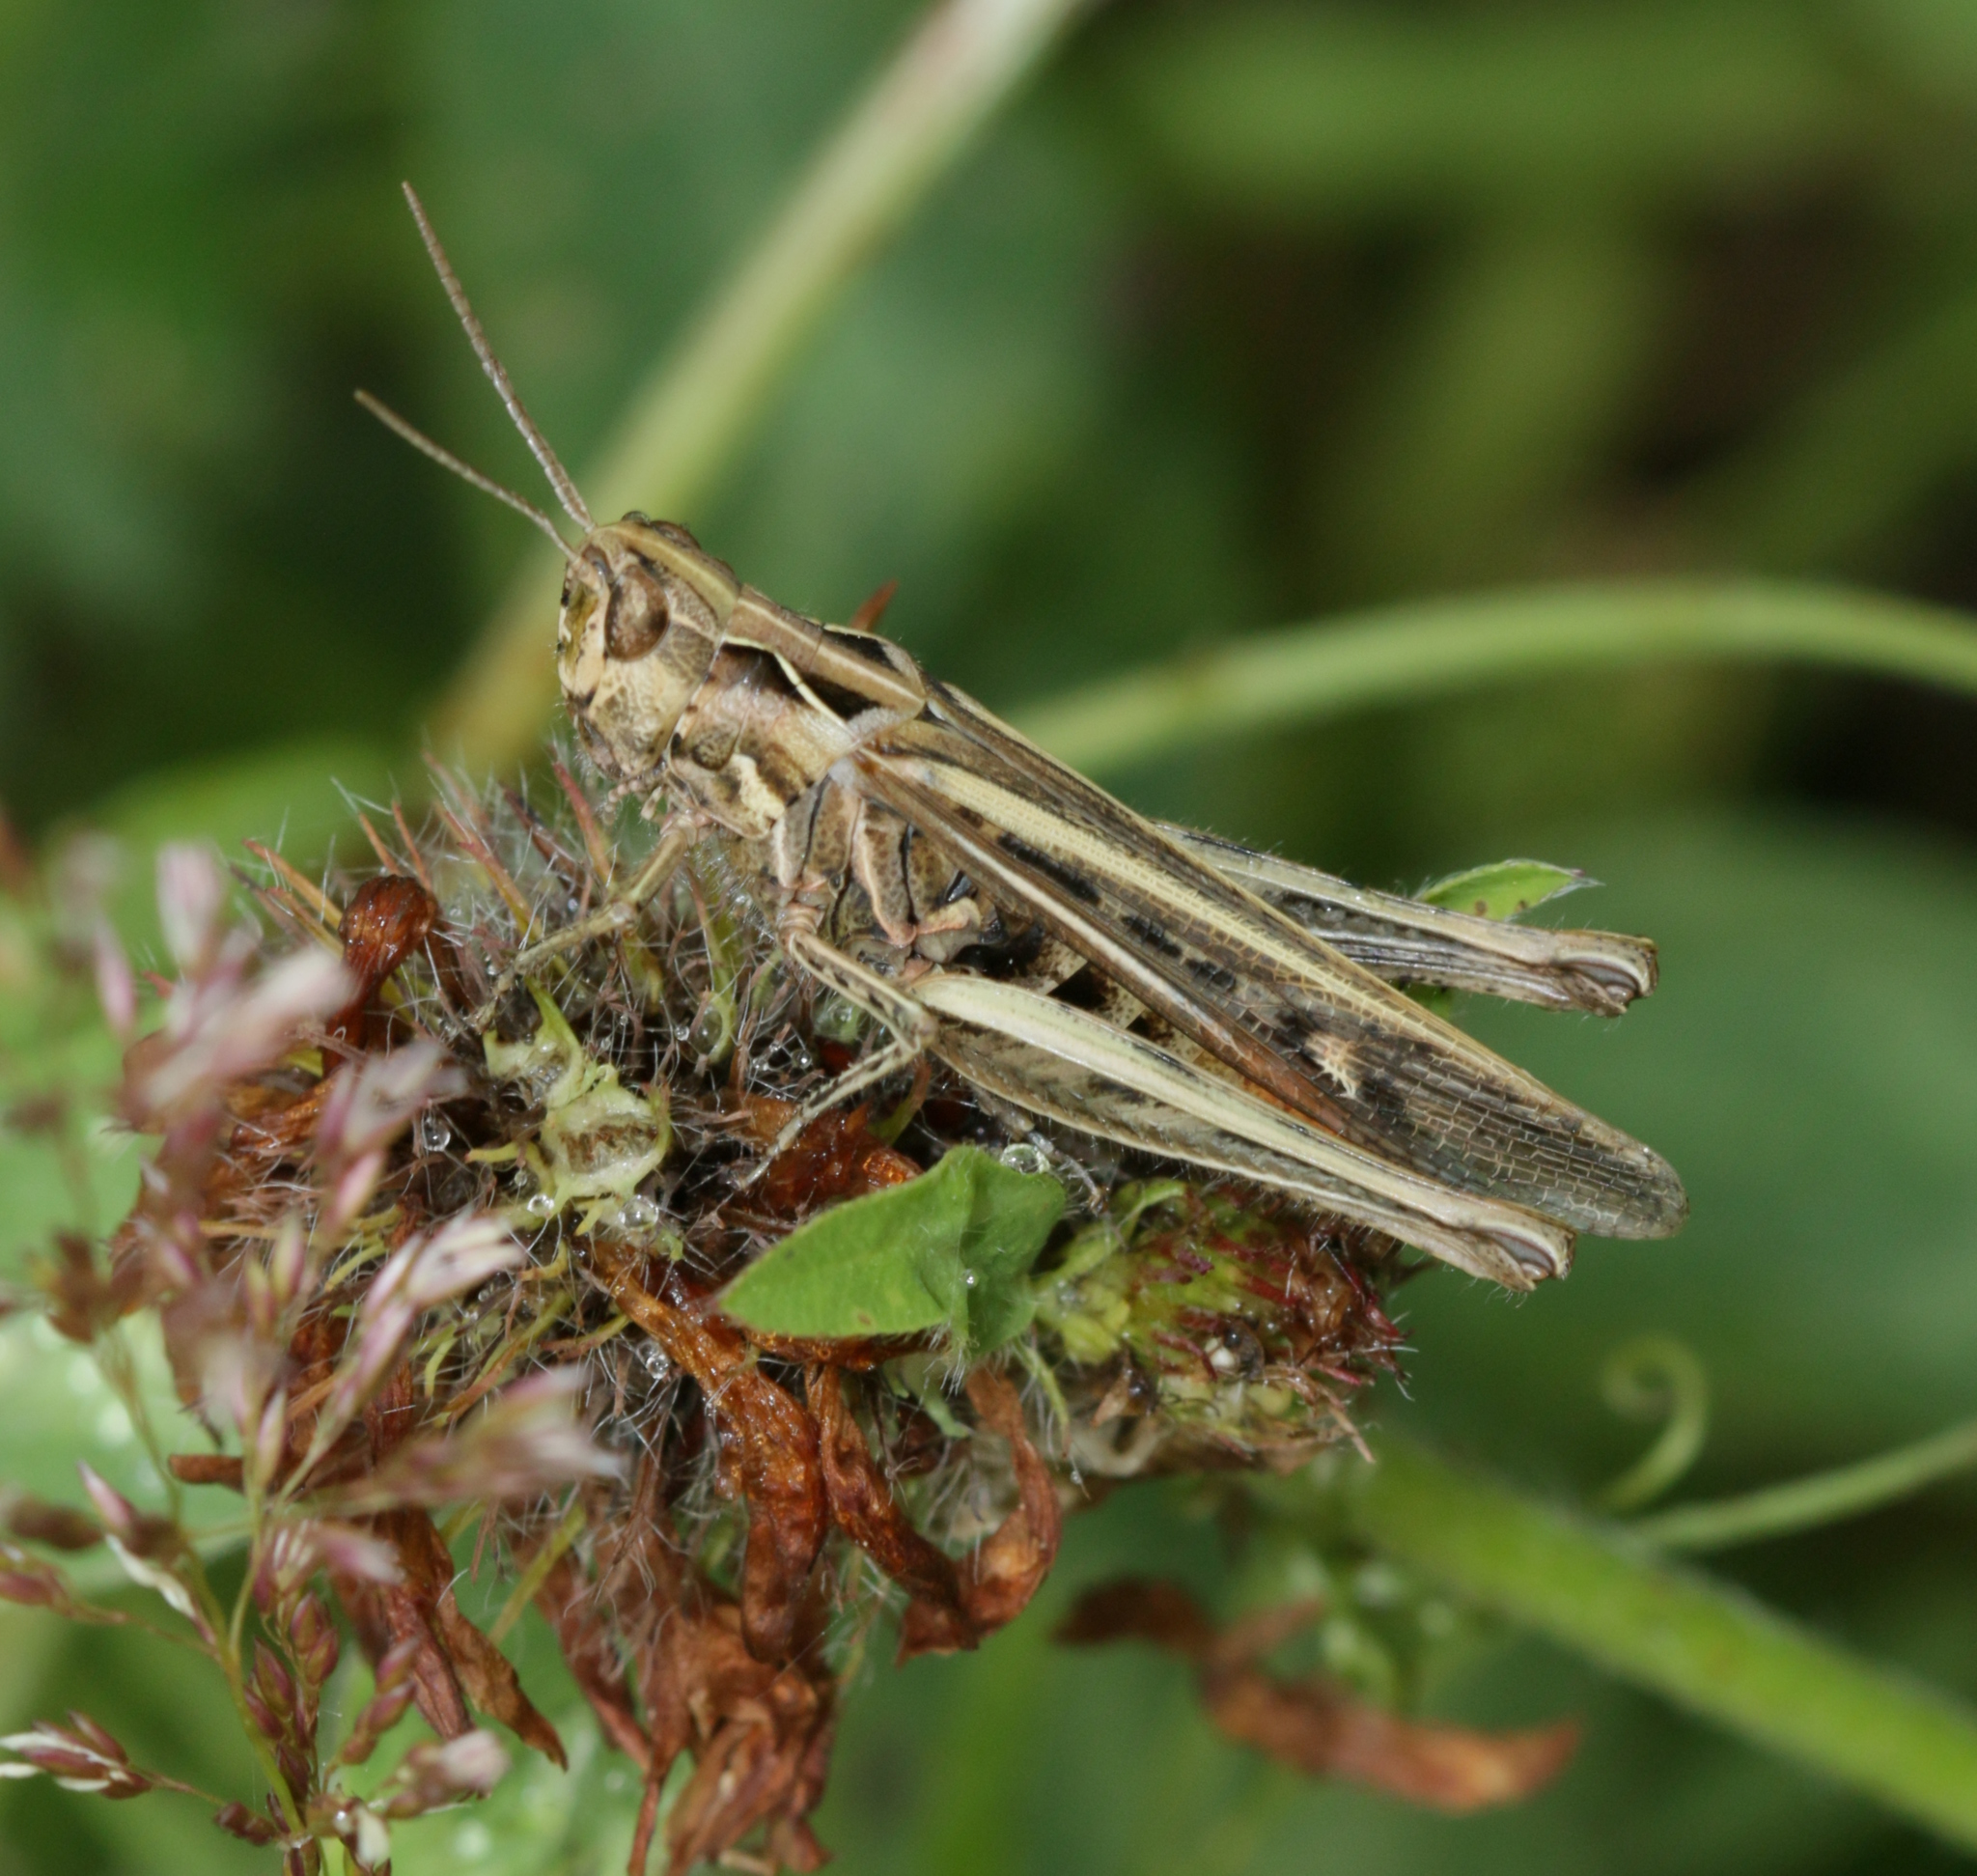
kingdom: Animalia
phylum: Arthropoda
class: Insecta
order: Orthoptera
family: Acrididae
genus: Chorthippus
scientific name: Chorthippus brunneus
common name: Field grasshopper
